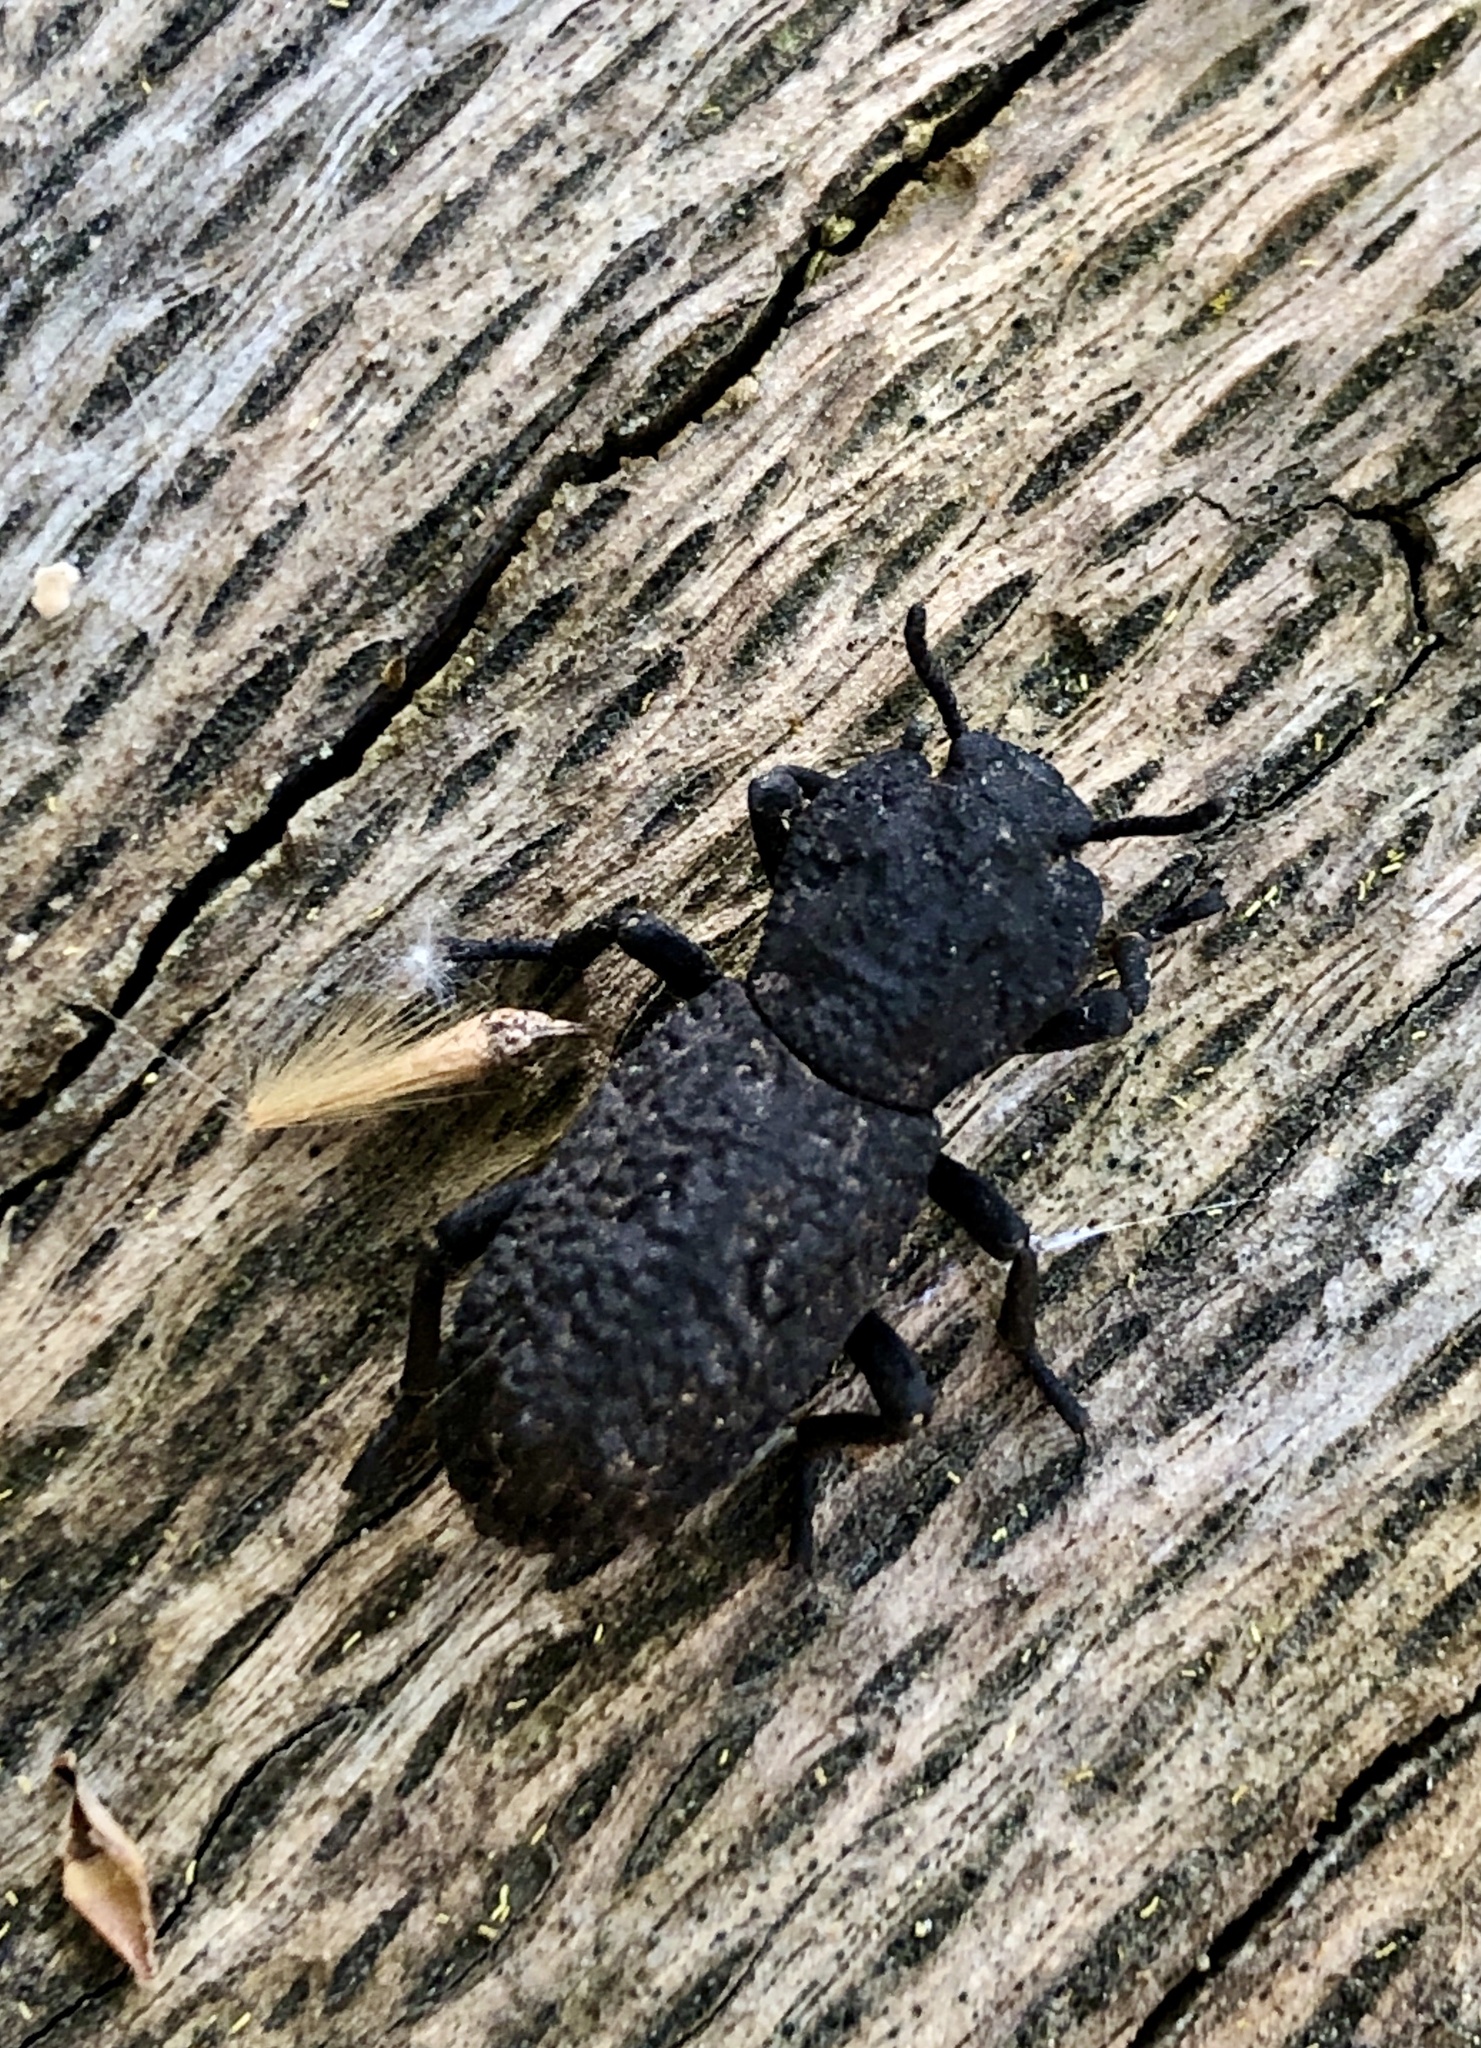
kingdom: Animalia
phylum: Arthropoda
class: Insecta
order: Coleoptera
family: Zopheridae
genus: Phloeodes
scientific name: Phloeodes diabolicus
